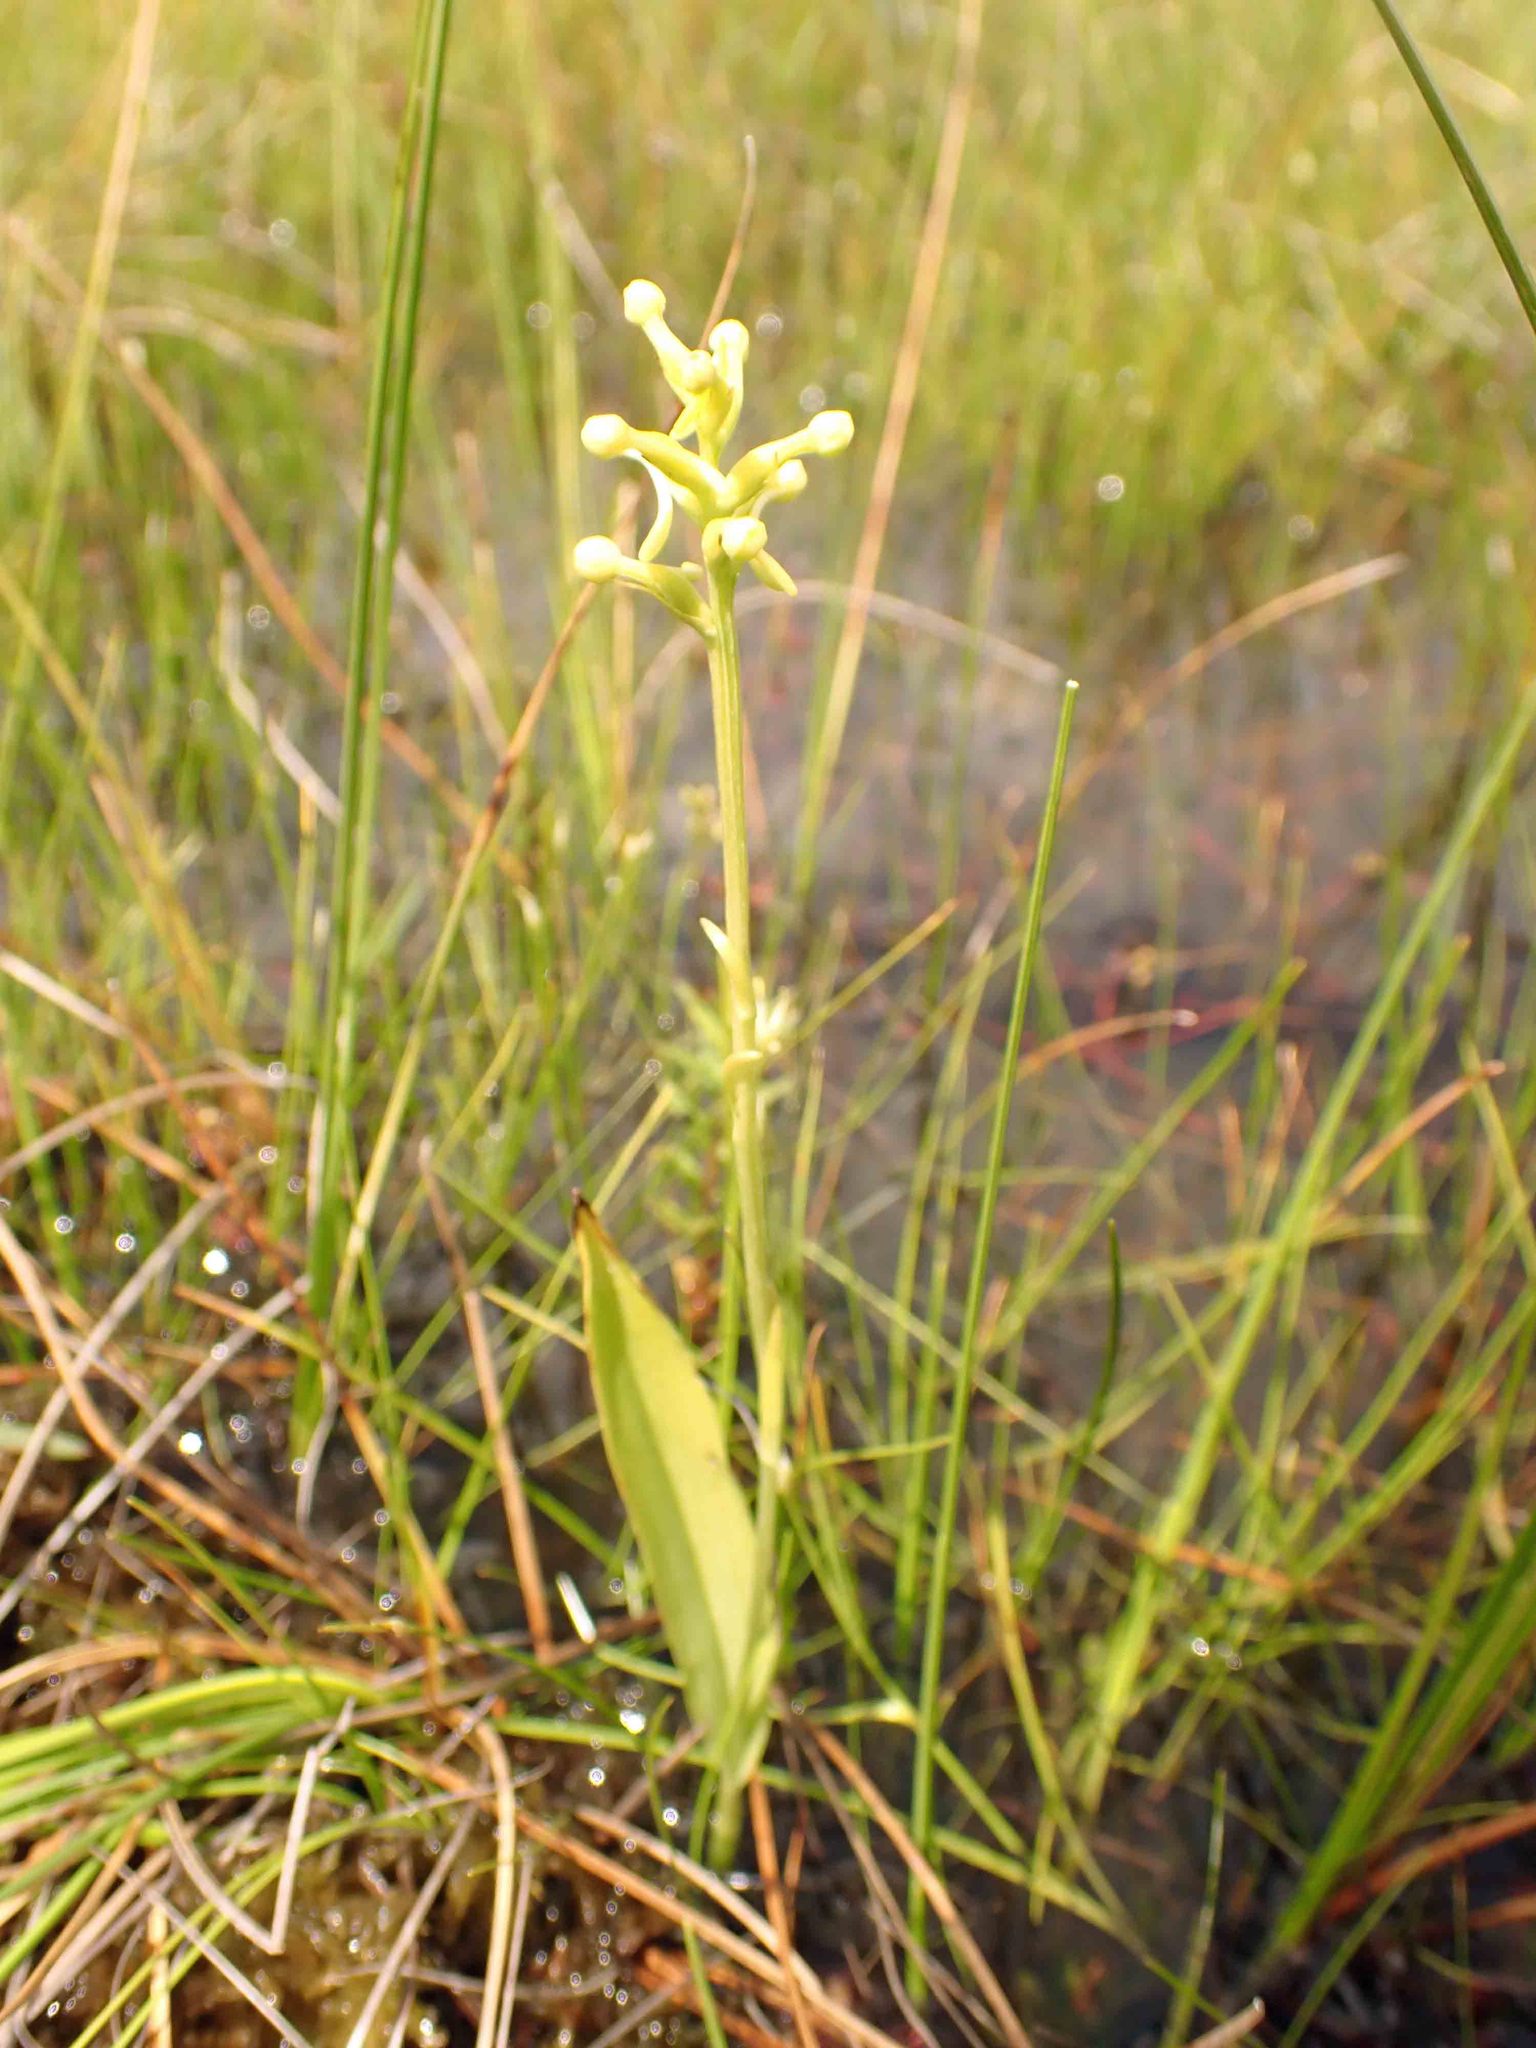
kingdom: Plantae
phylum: Tracheophyta
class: Liliopsida
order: Asparagales
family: Orchidaceae
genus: Platanthera
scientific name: Platanthera clavellata
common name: Club-spur orchid
